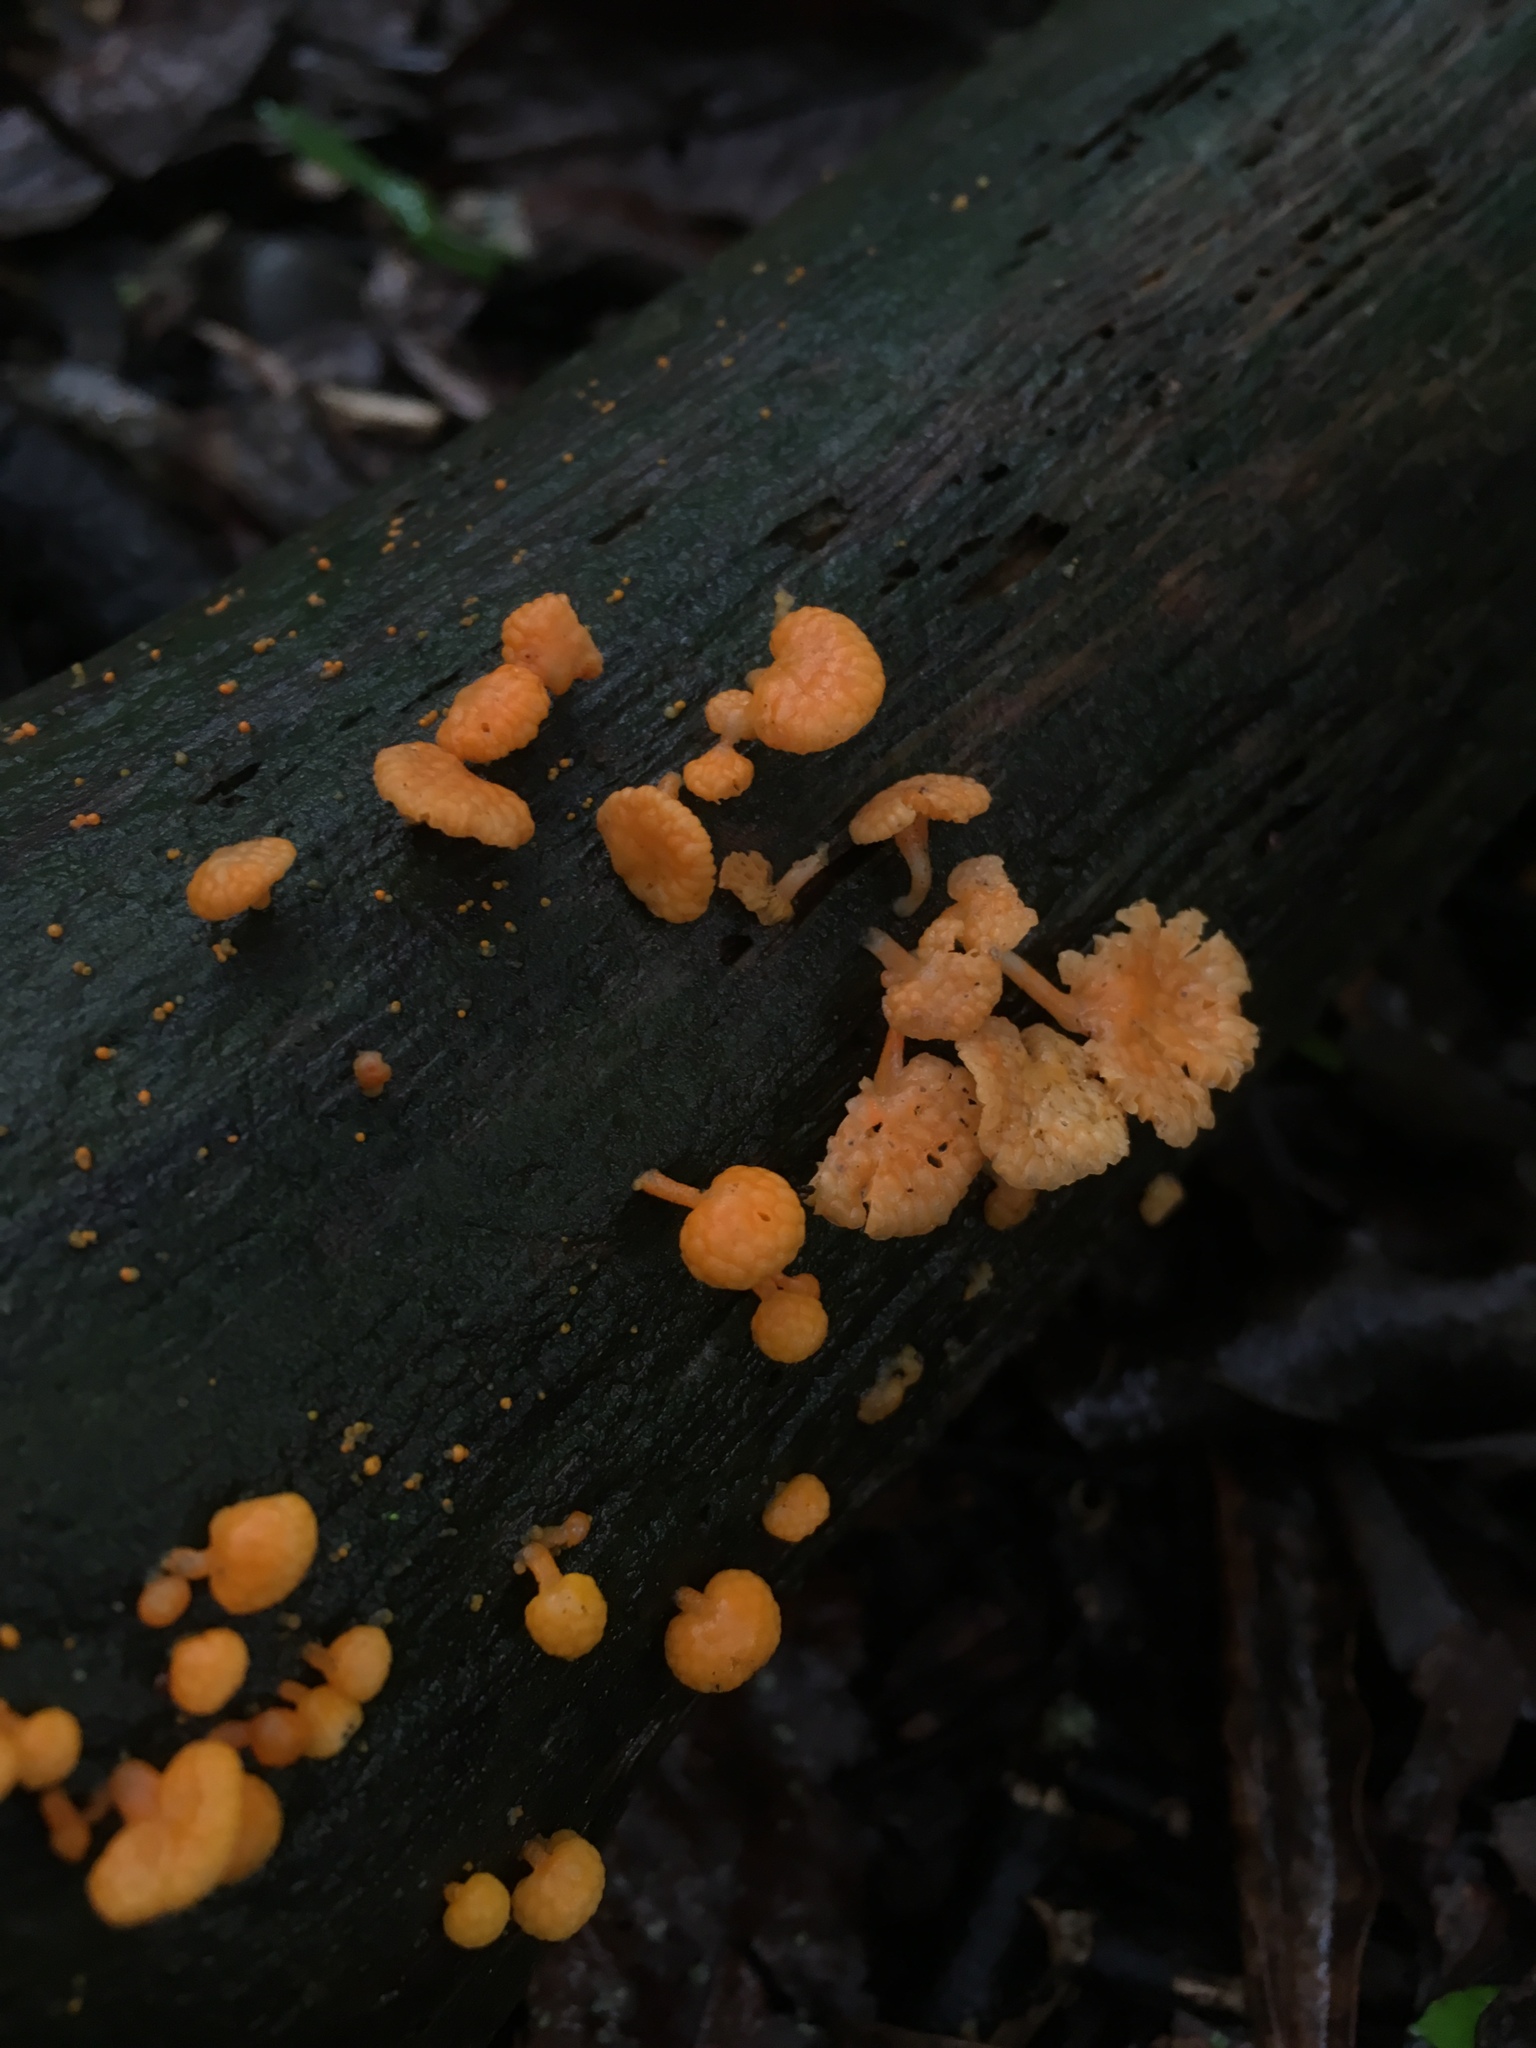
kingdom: Fungi
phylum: Basidiomycota
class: Agaricomycetes
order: Agaricales
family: Mycenaceae
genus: Favolaschia
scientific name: Favolaschia claudopus
